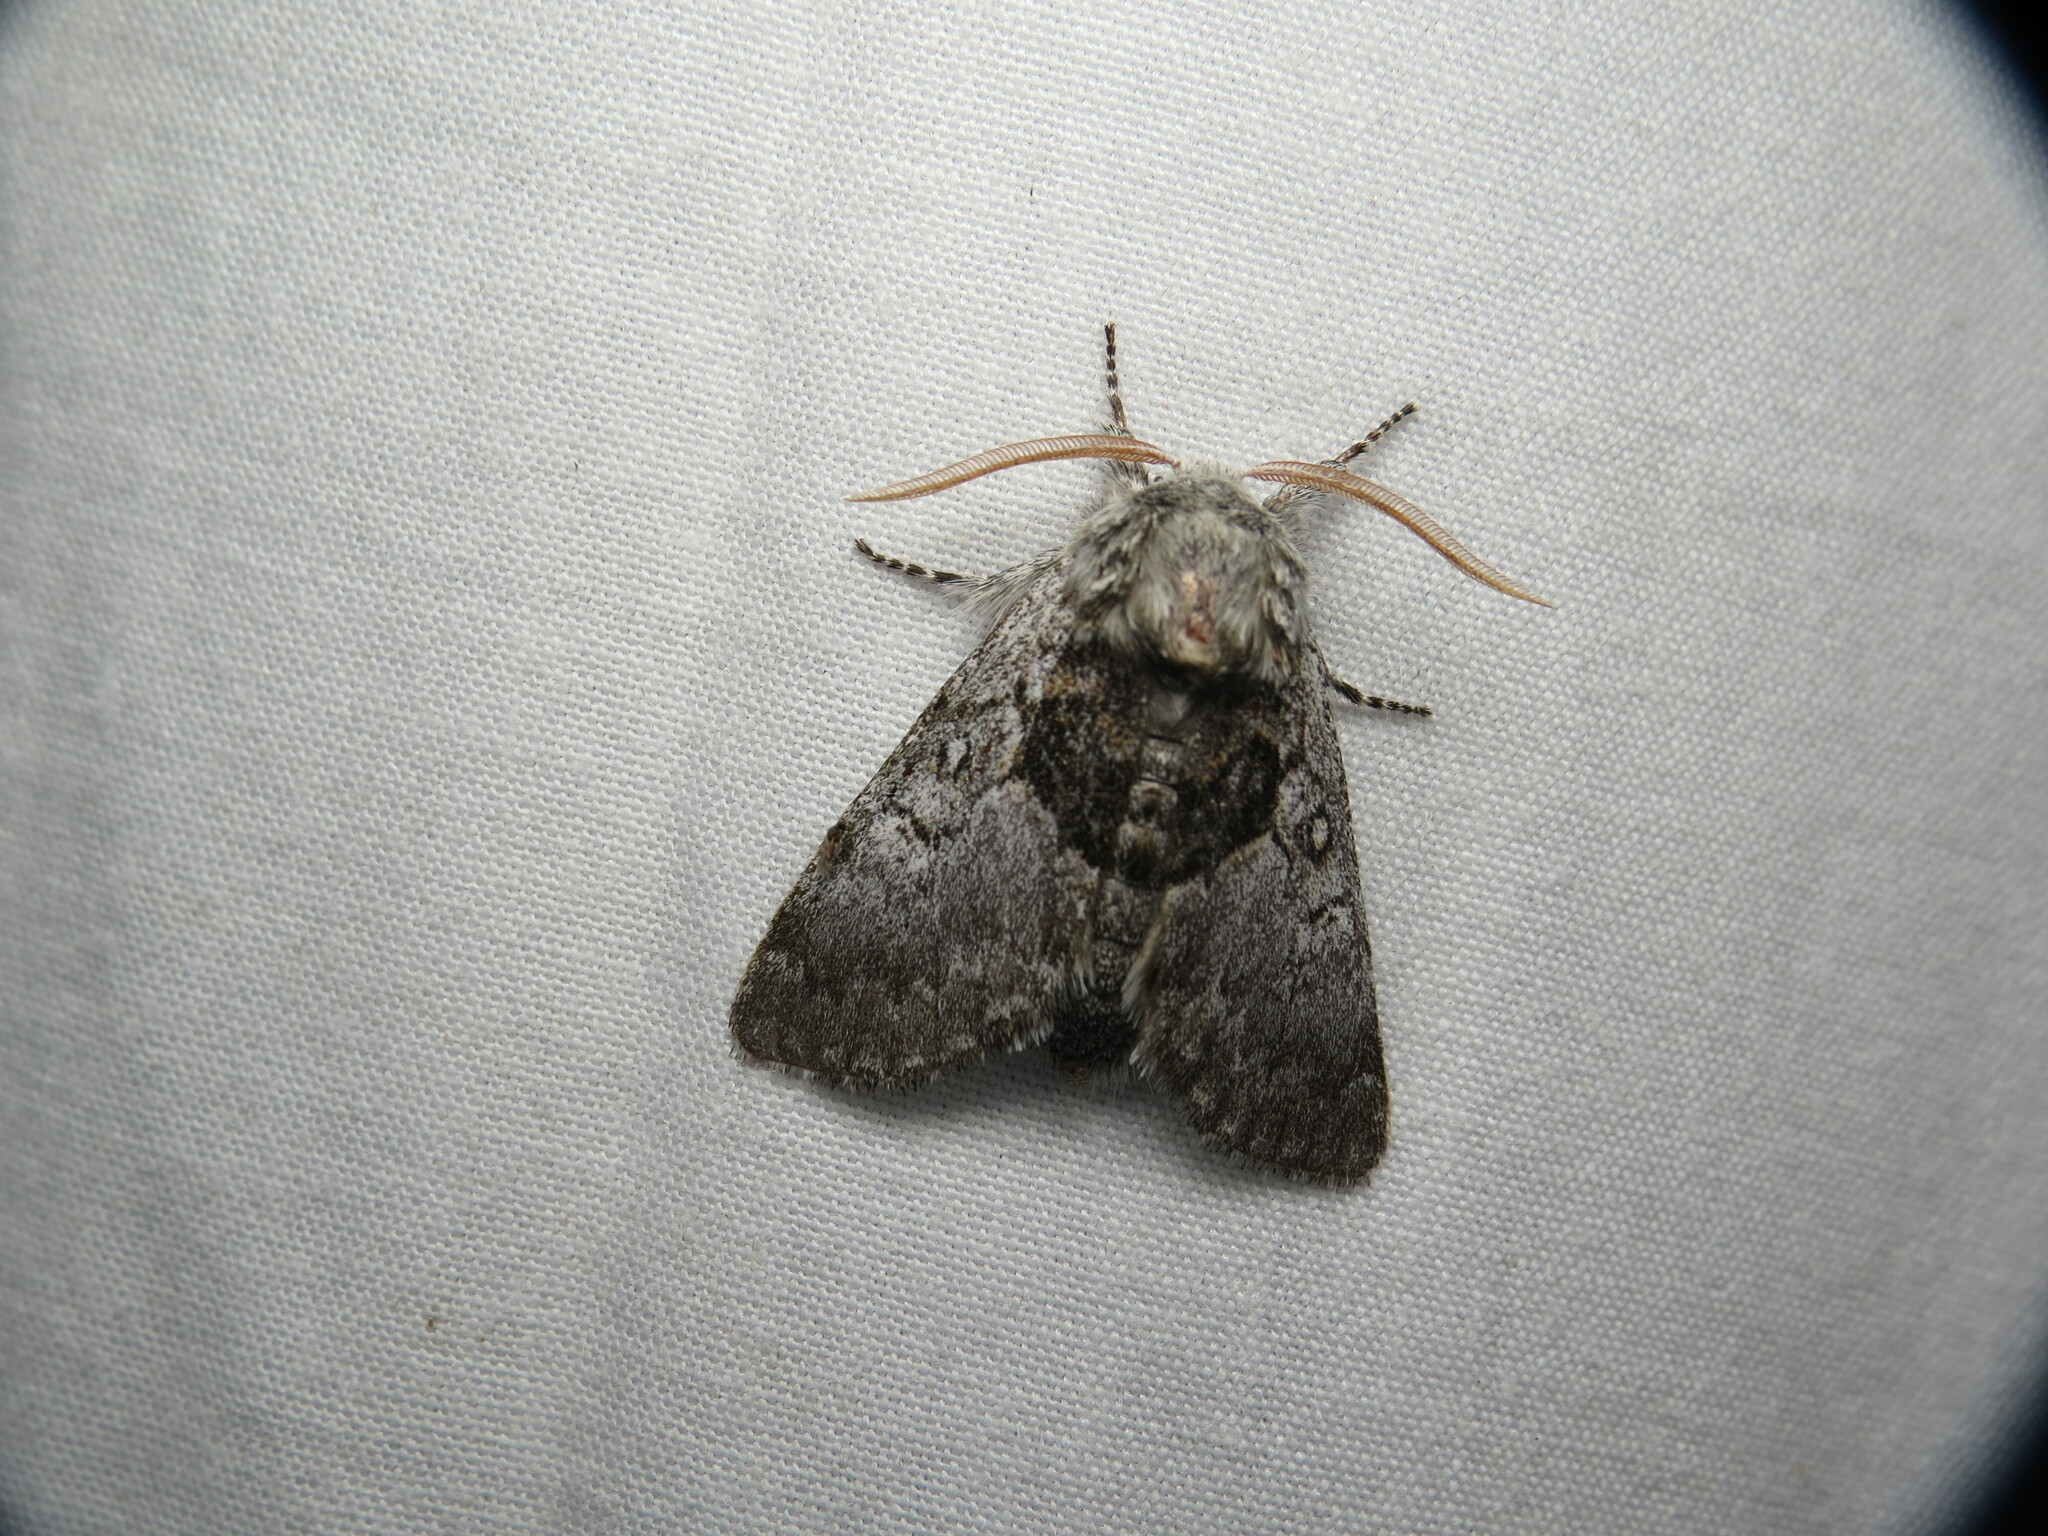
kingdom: Animalia
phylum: Arthropoda
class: Insecta
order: Lepidoptera
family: Noctuidae
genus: Colocasia
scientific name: Colocasia flavicornis
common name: Saddled yellowhorn
